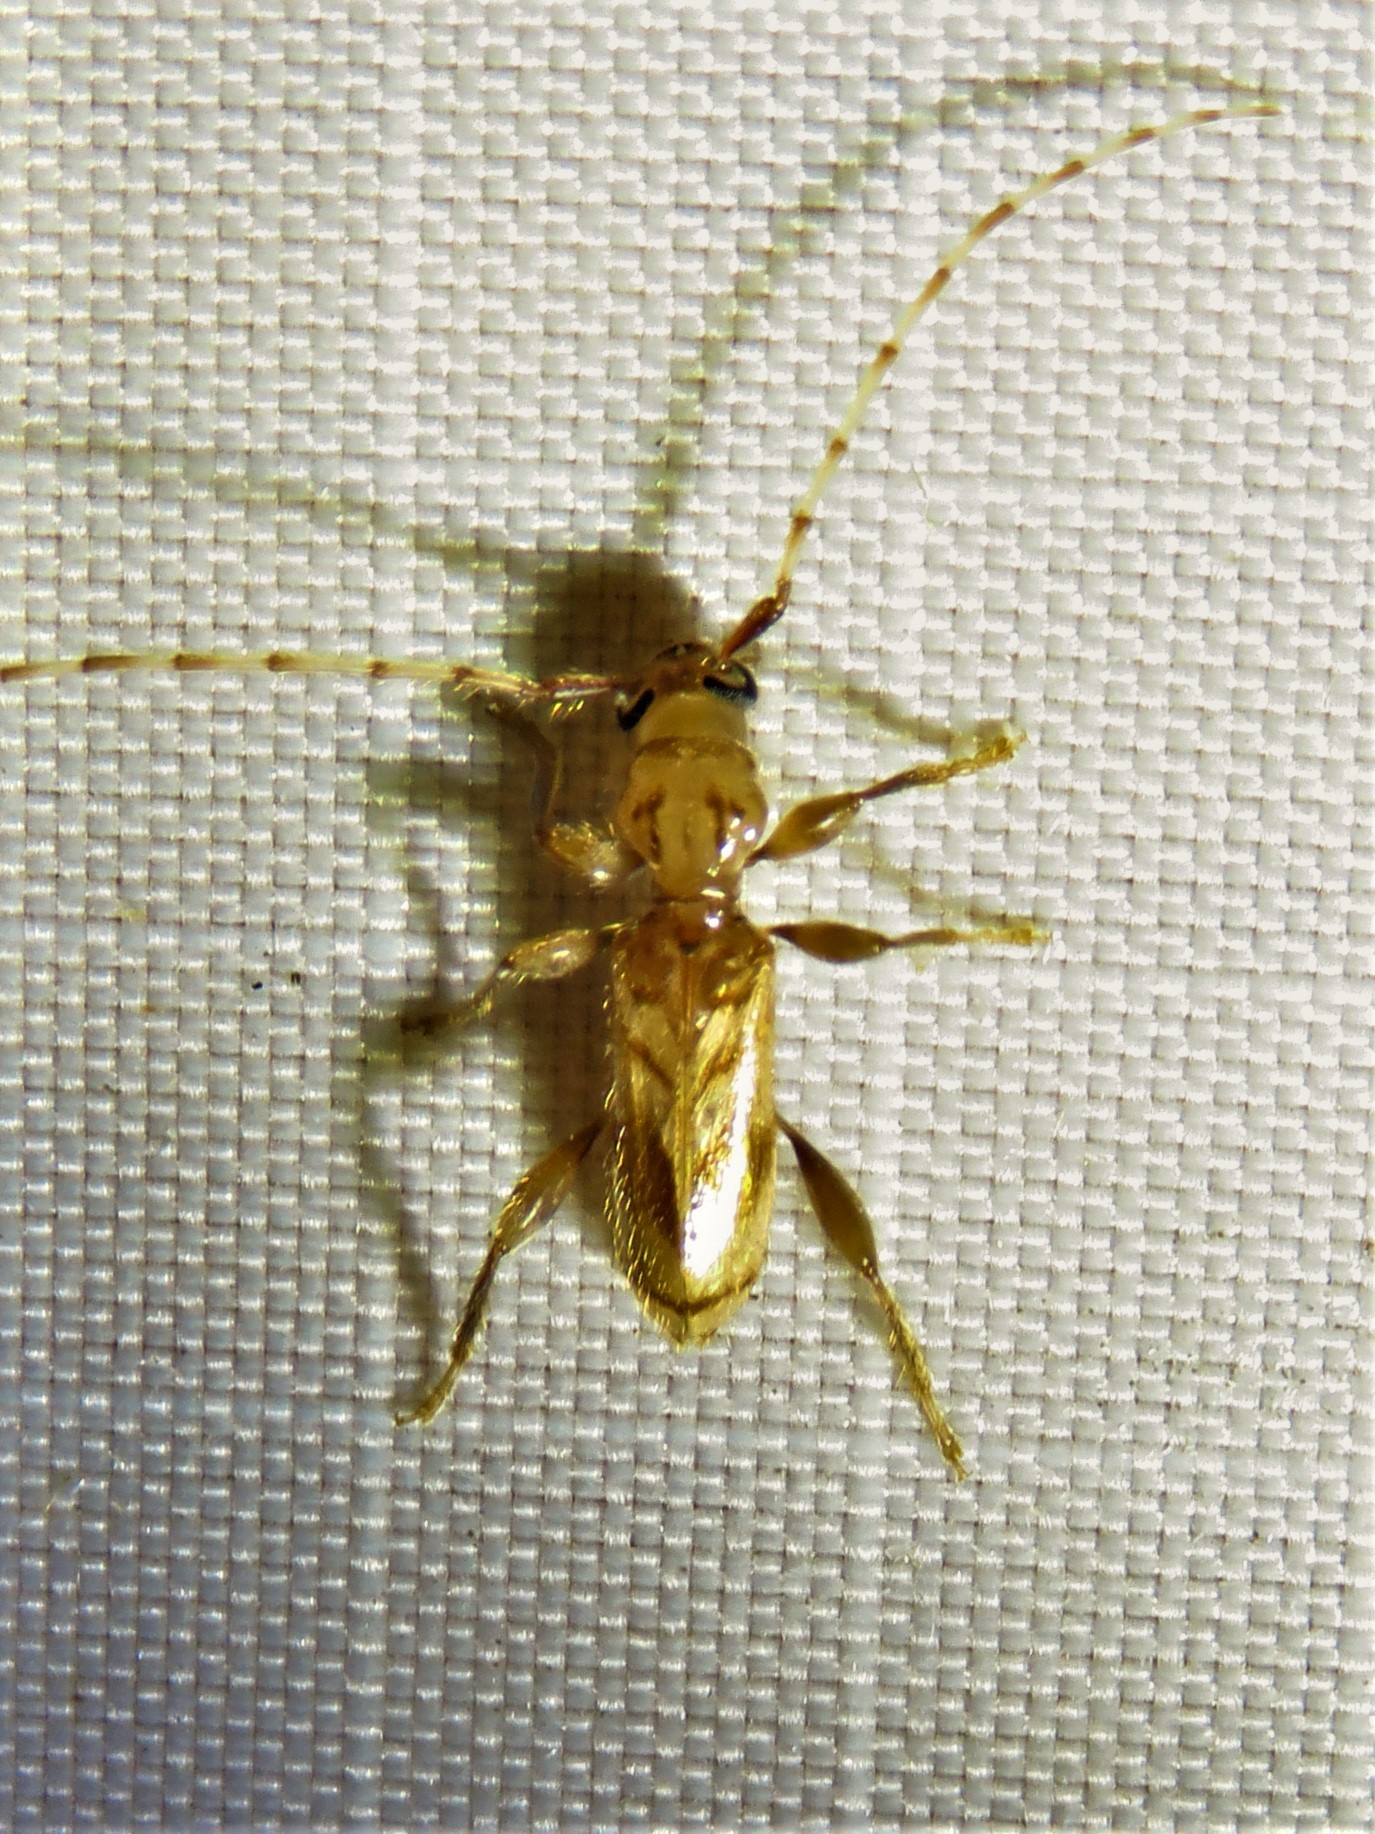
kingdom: Animalia
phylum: Arthropoda
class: Insecta
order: Coleoptera
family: Cerambycidae
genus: Obrium
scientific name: Obrium maculatum
